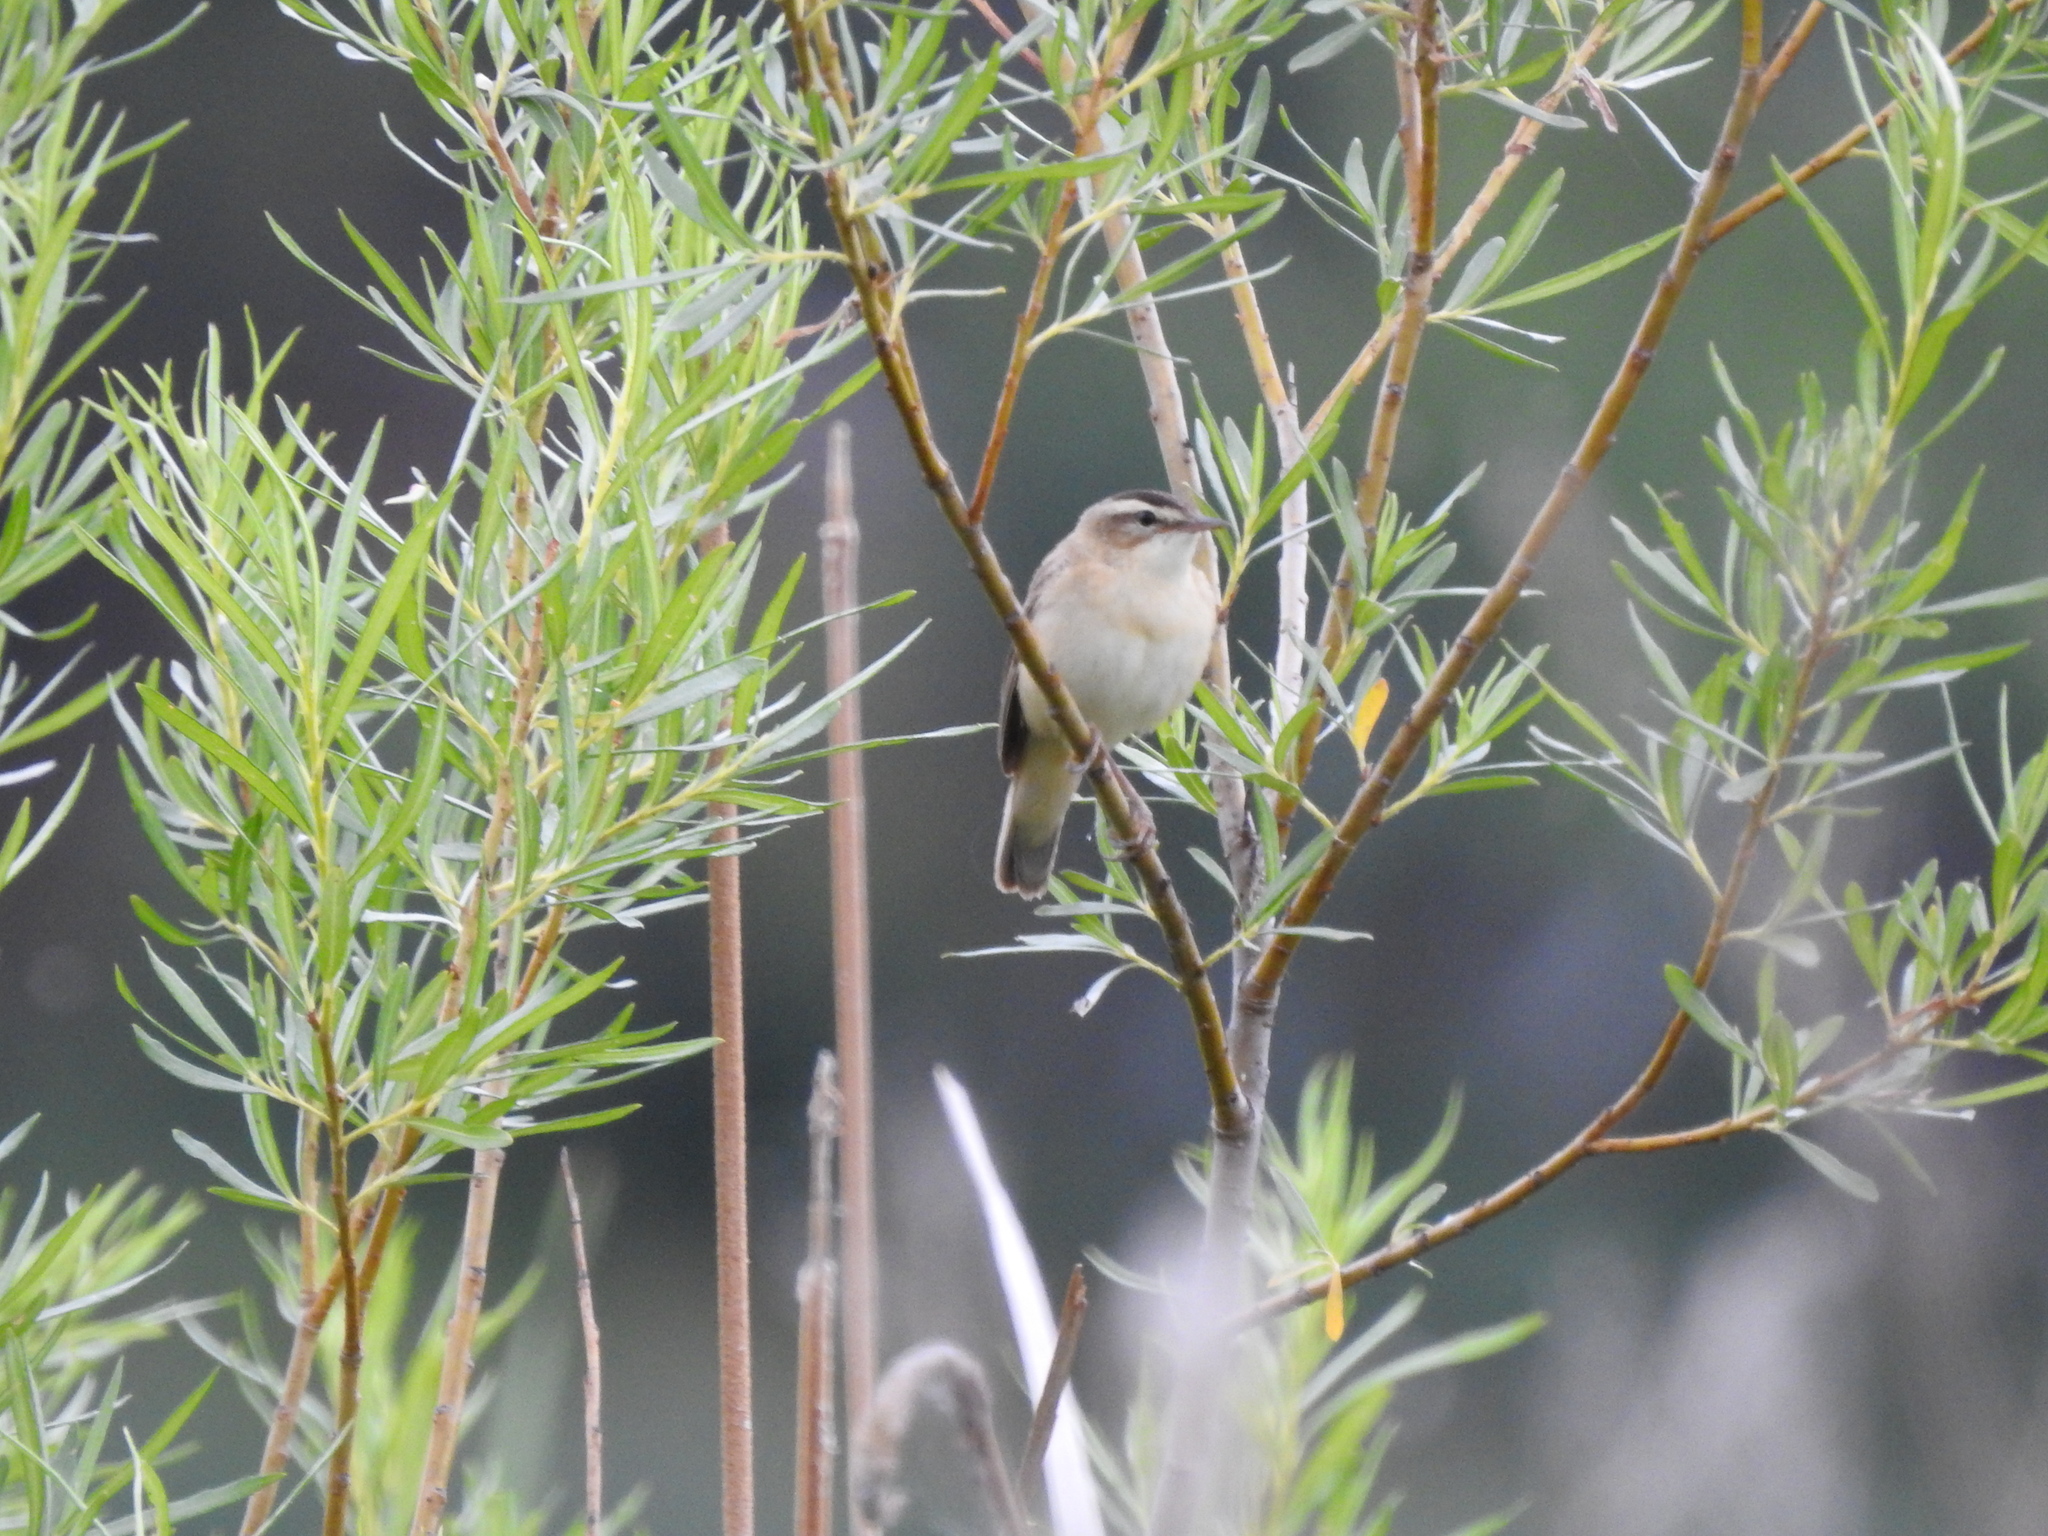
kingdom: Animalia
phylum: Chordata
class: Aves
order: Passeriformes
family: Acrocephalidae
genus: Acrocephalus
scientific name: Acrocephalus schoenobaenus
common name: Sedge warbler
